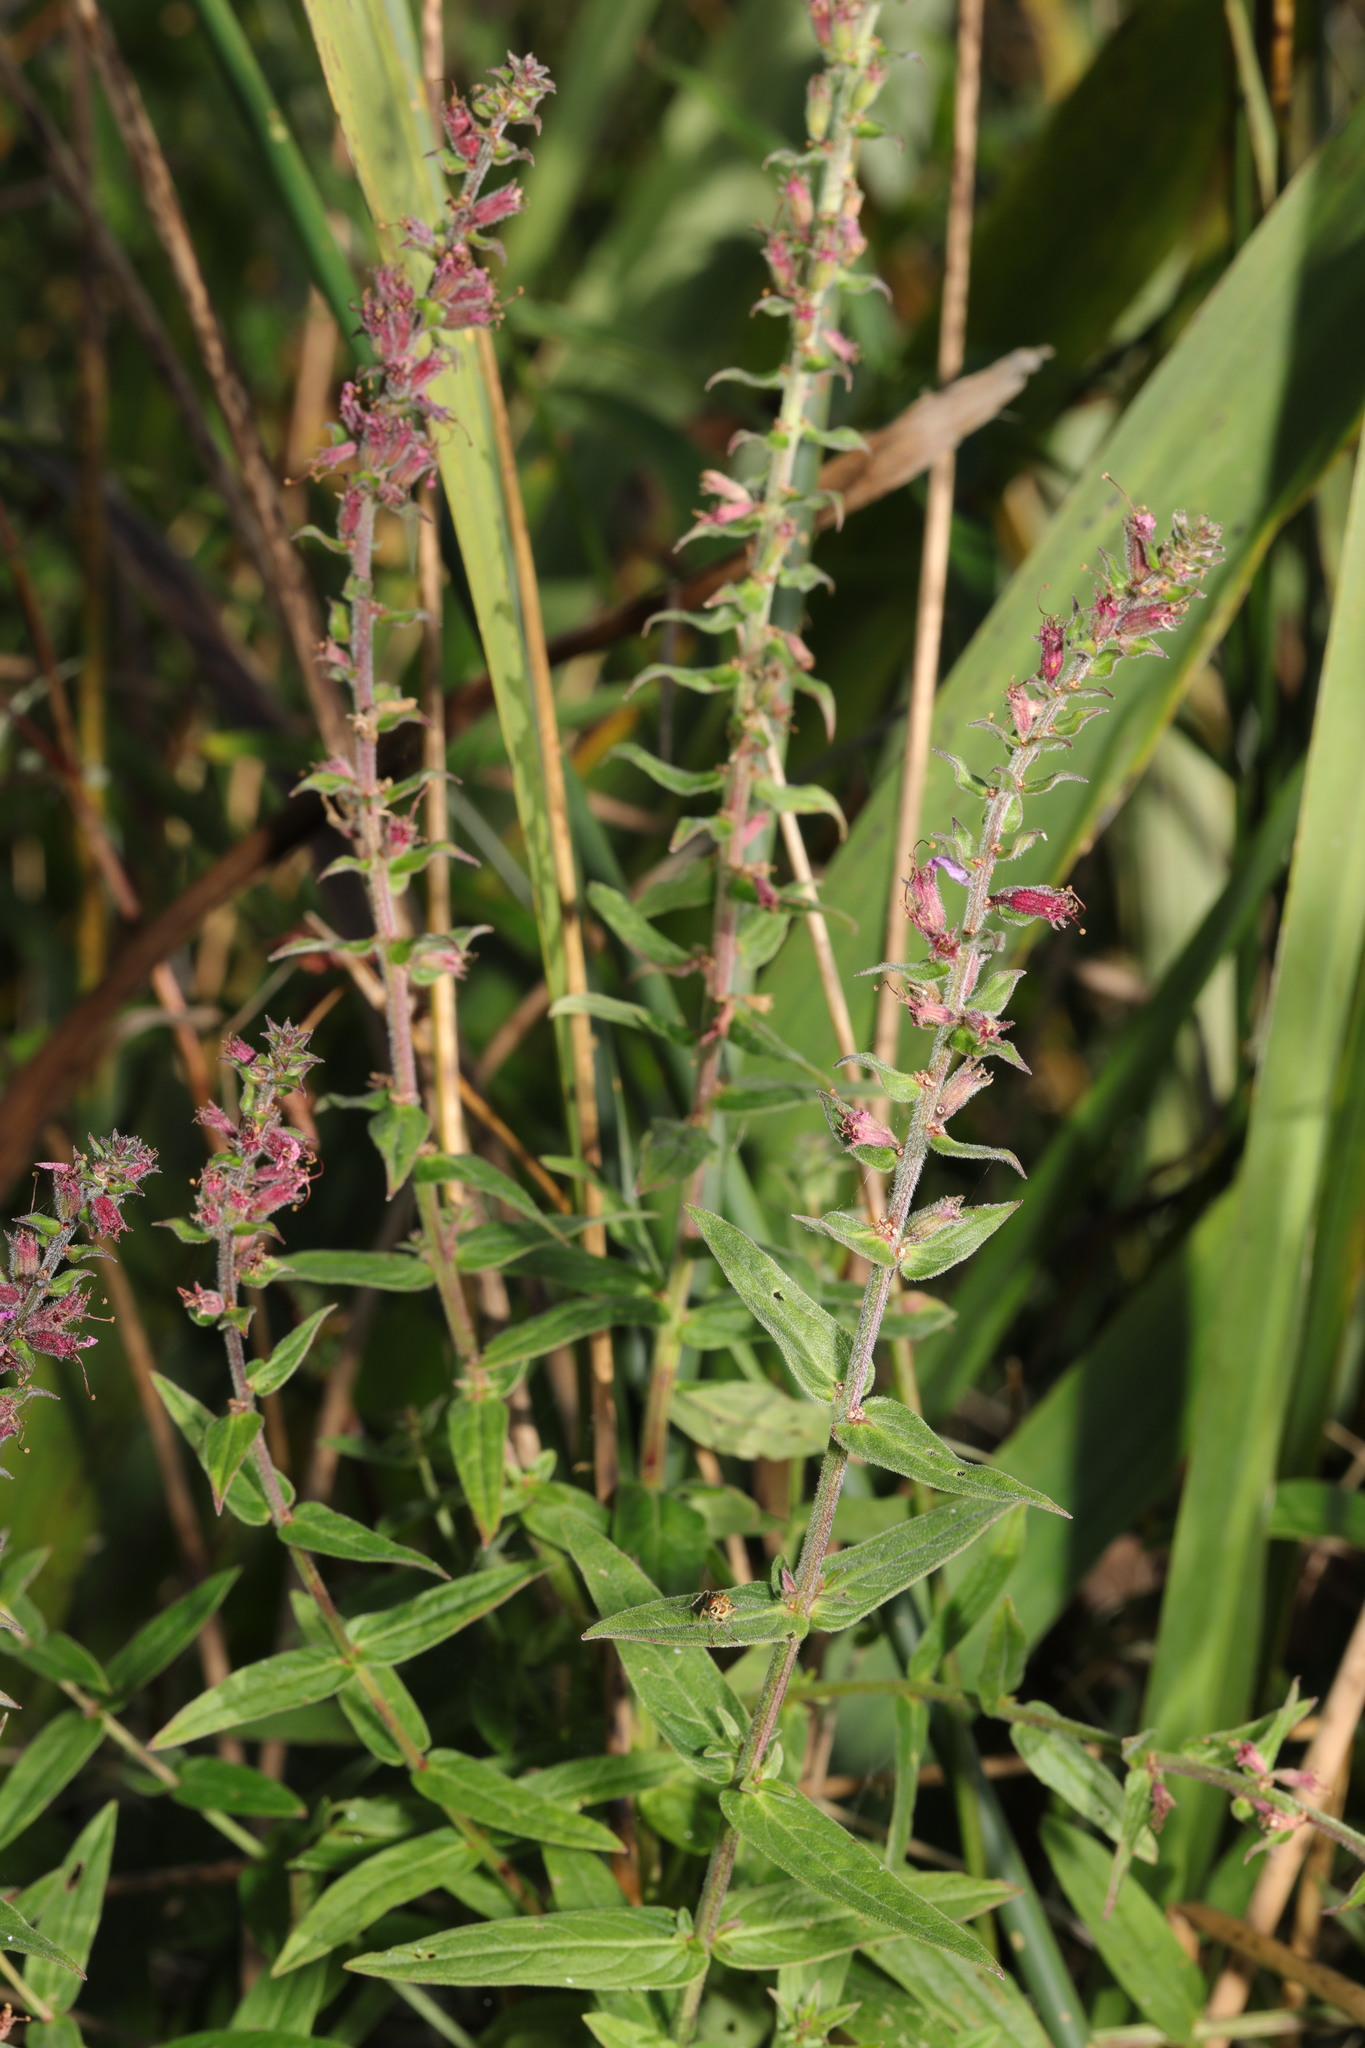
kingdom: Plantae
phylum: Tracheophyta
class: Magnoliopsida
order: Myrtales
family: Lythraceae
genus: Lythrum
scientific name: Lythrum salicaria
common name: Purple loosestrife
